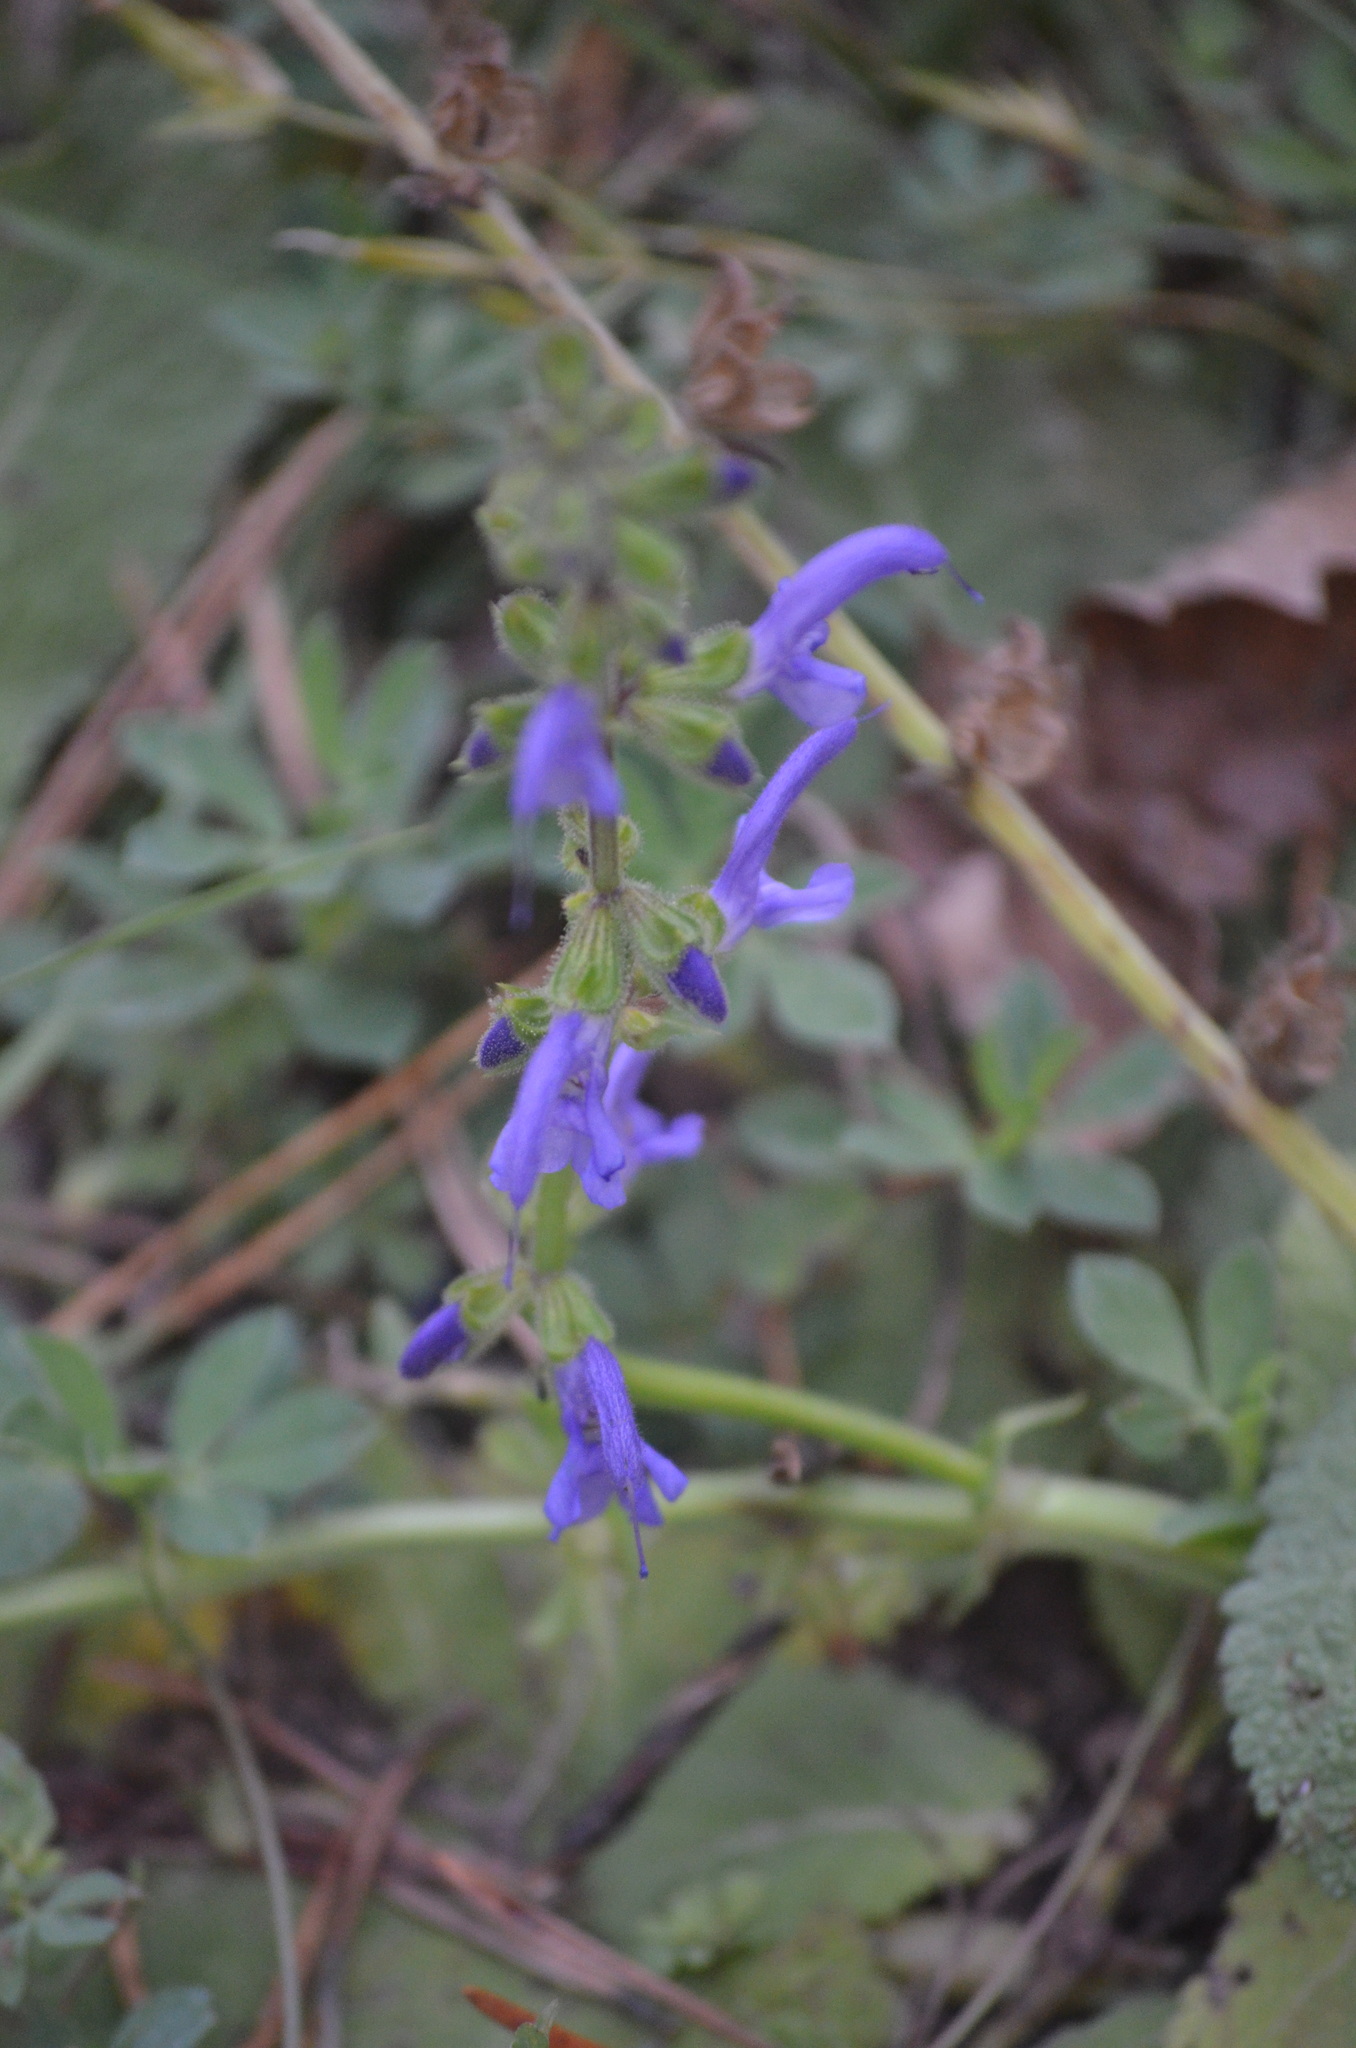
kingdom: Plantae
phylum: Tracheophyta
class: Magnoliopsida
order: Lamiales
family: Lamiaceae
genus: Salvia
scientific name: Salvia pratensis
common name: Meadow sage
